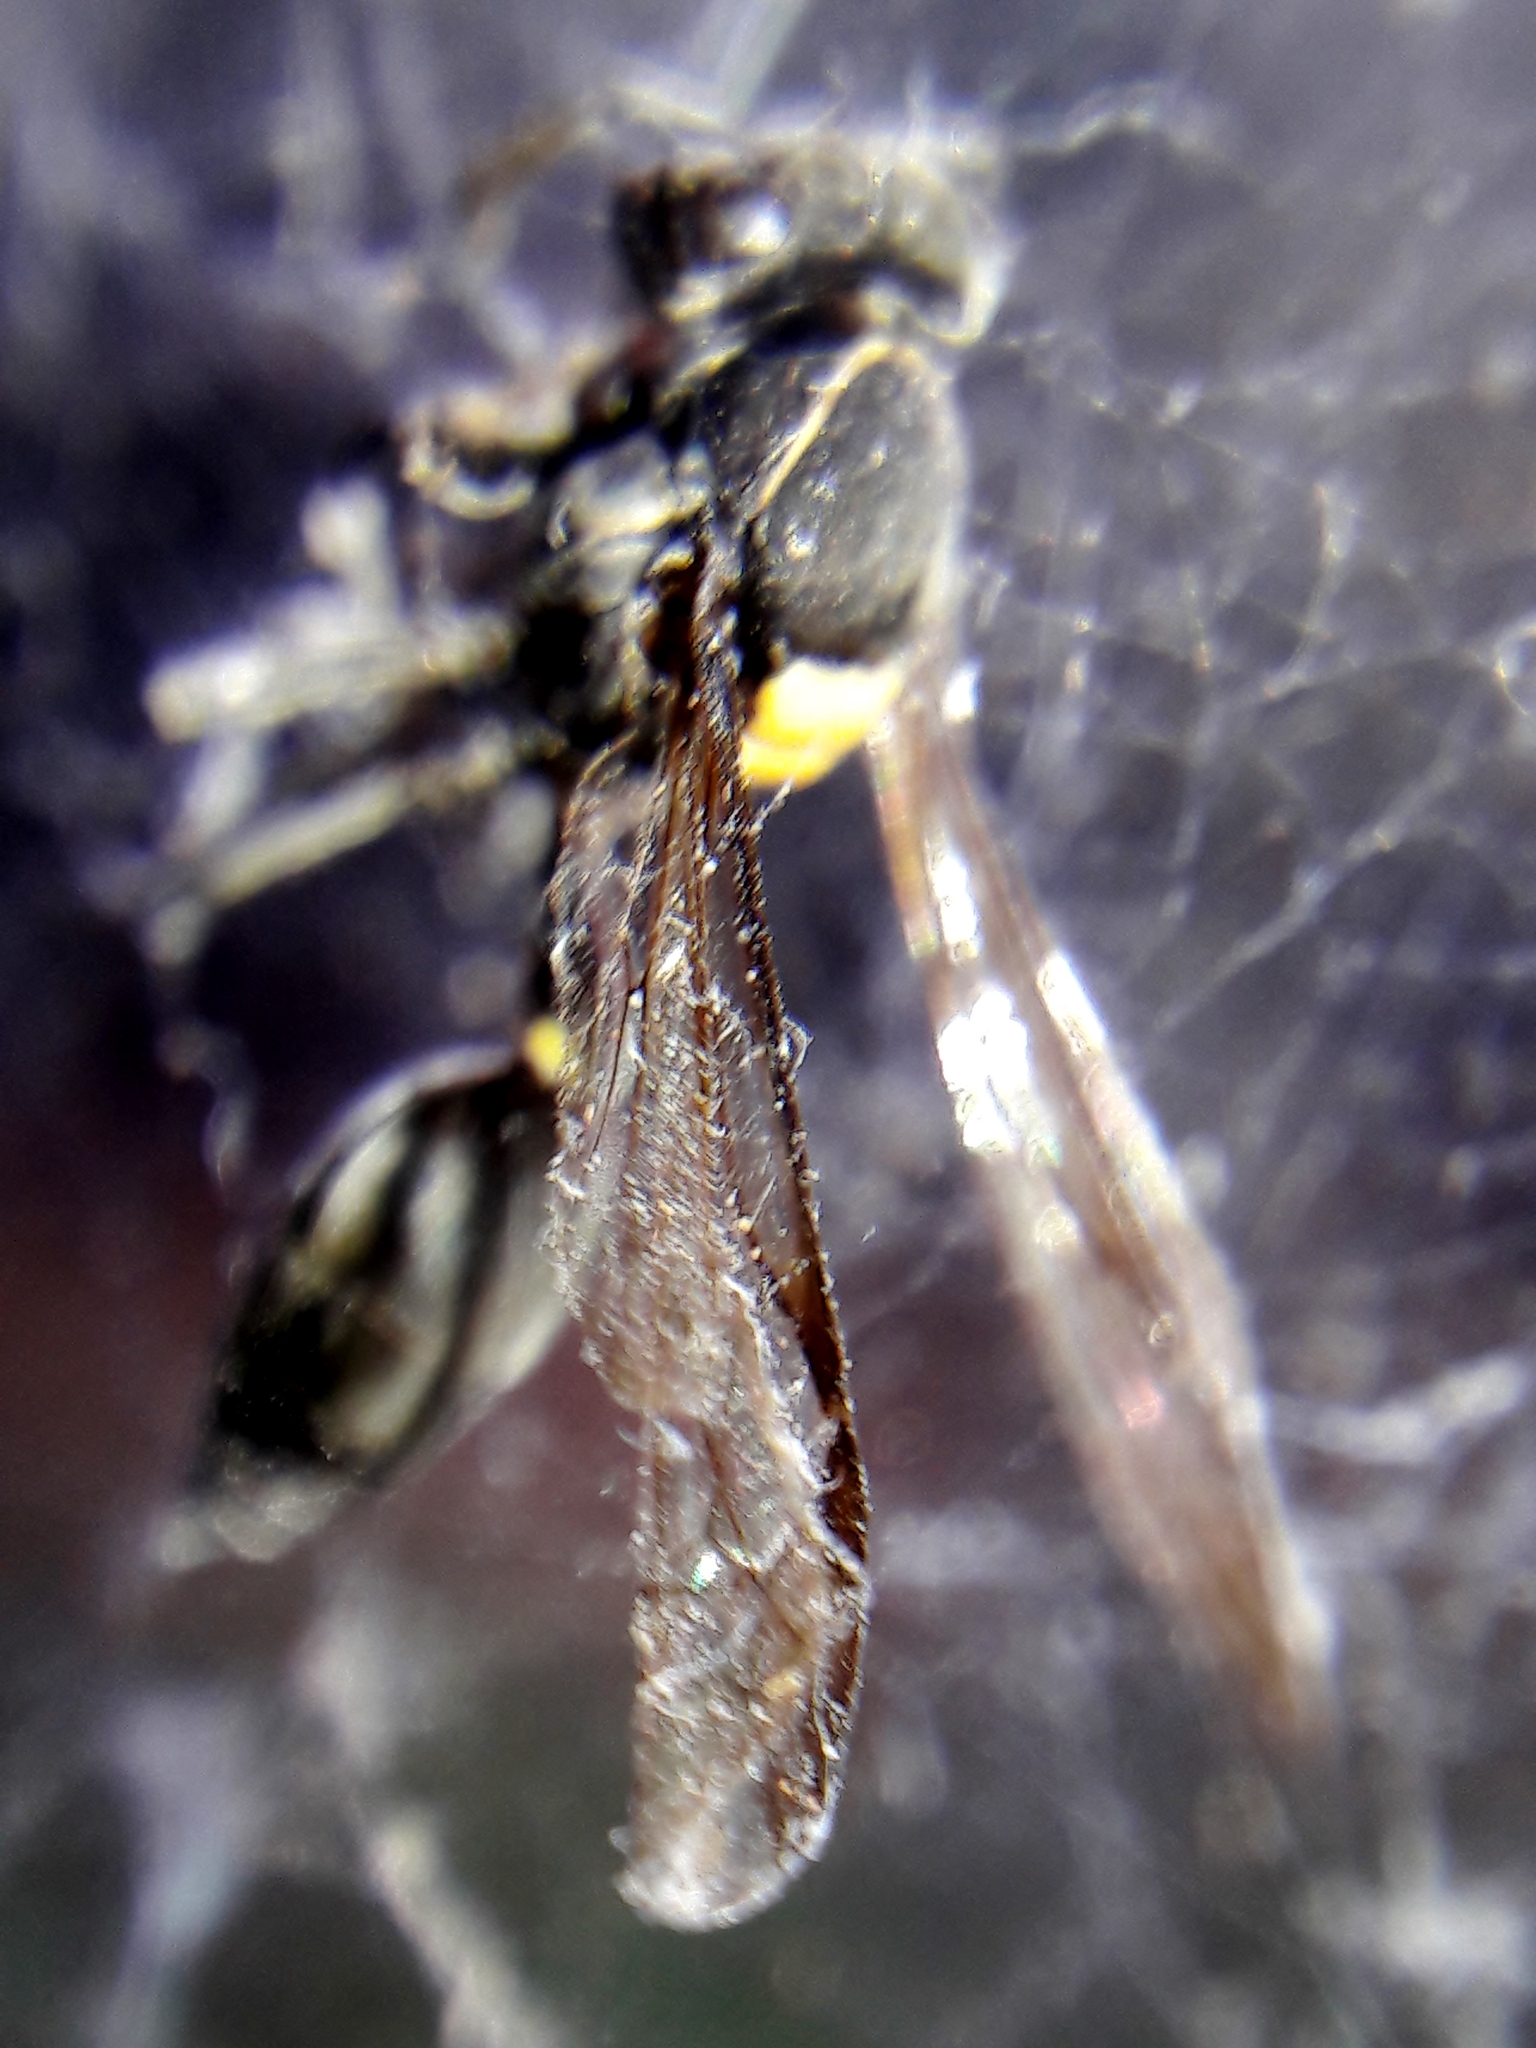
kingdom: Animalia
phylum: Arthropoda
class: Insecta
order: Hymenoptera
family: Eumenidae
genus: Polybia
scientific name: Polybia paulista
